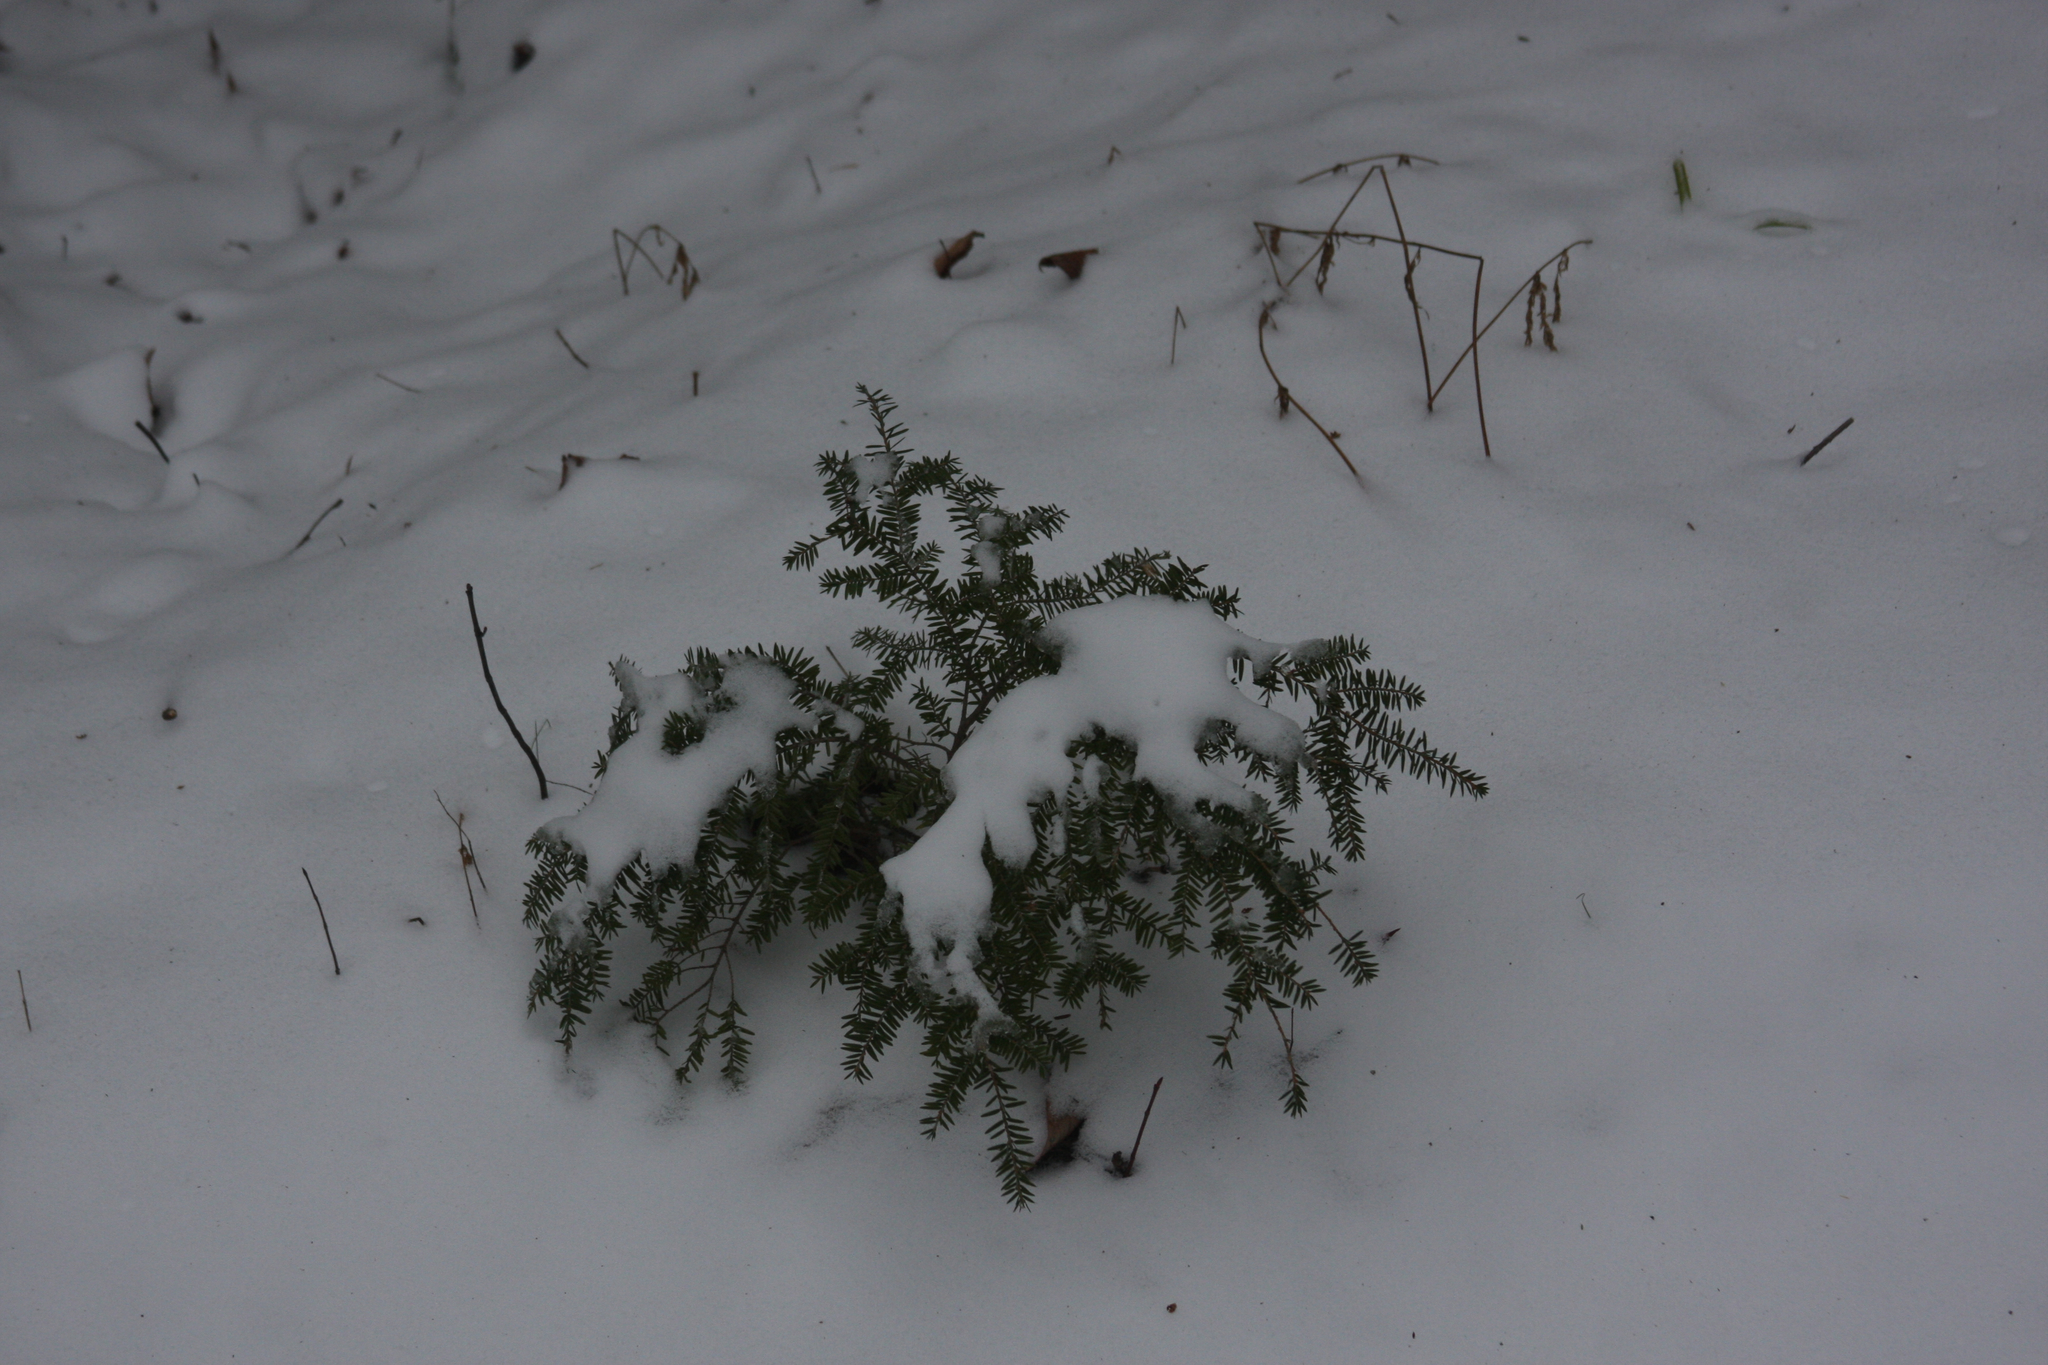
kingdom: Plantae
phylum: Tracheophyta
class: Pinopsida
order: Pinales
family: Pinaceae
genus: Tsuga
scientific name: Tsuga canadensis
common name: Eastern hemlock
